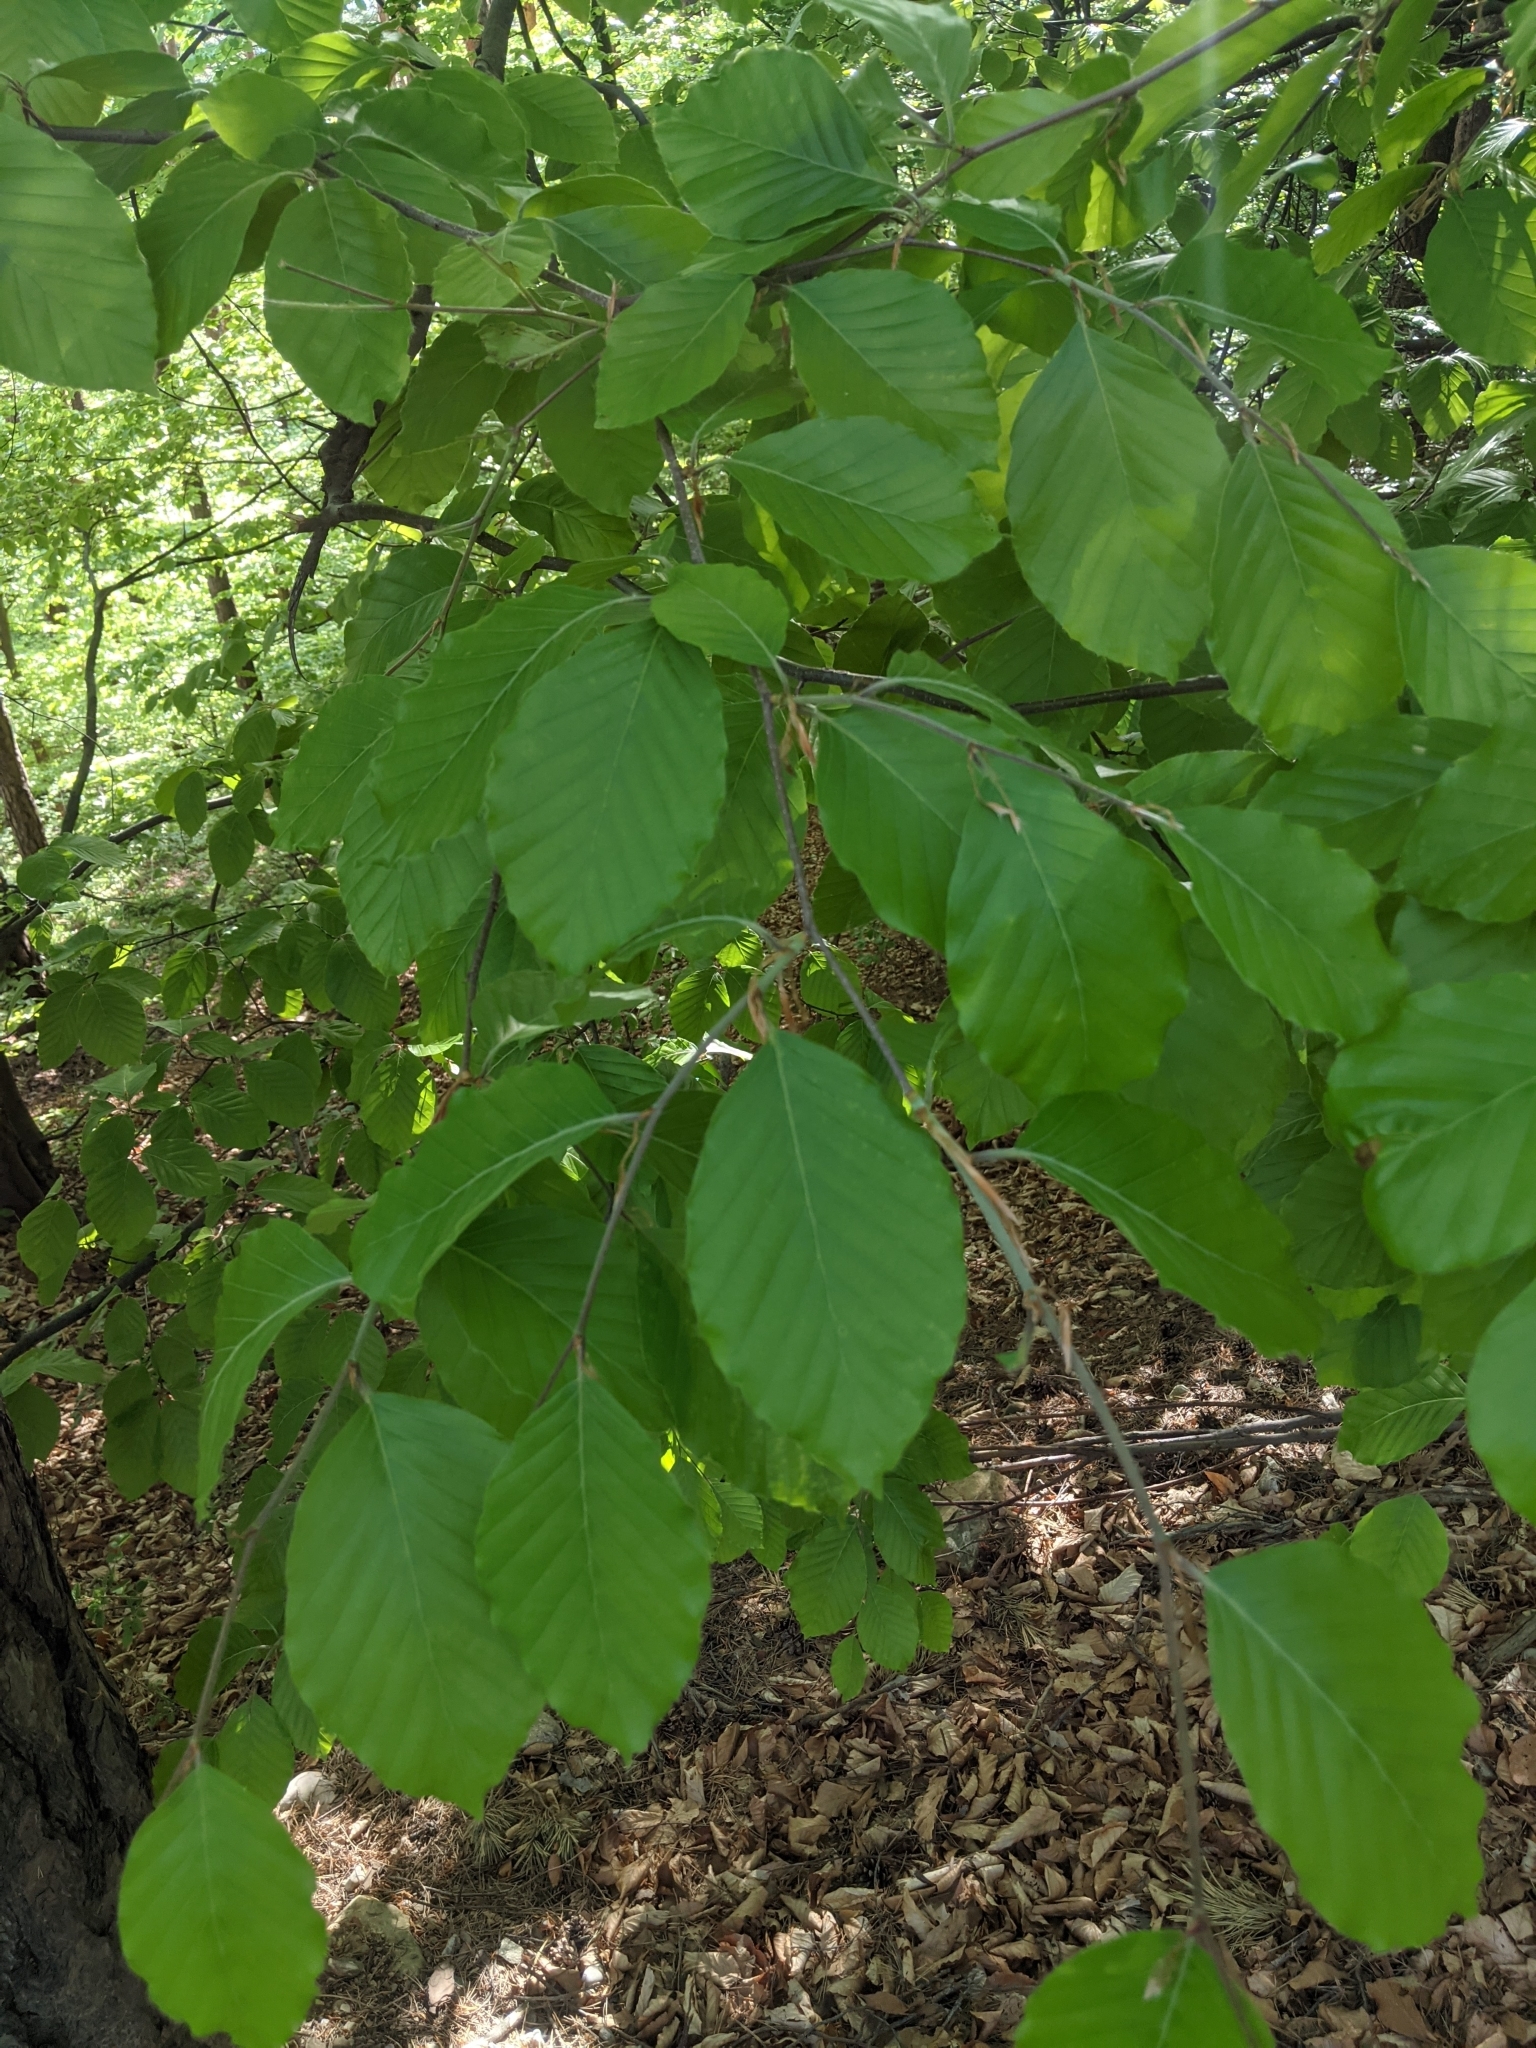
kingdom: Plantae
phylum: Tracheophyta
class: Magnoliopsida
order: Fagales
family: Fagaceae
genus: Fagus
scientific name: Fagus sylvatica
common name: Beech
